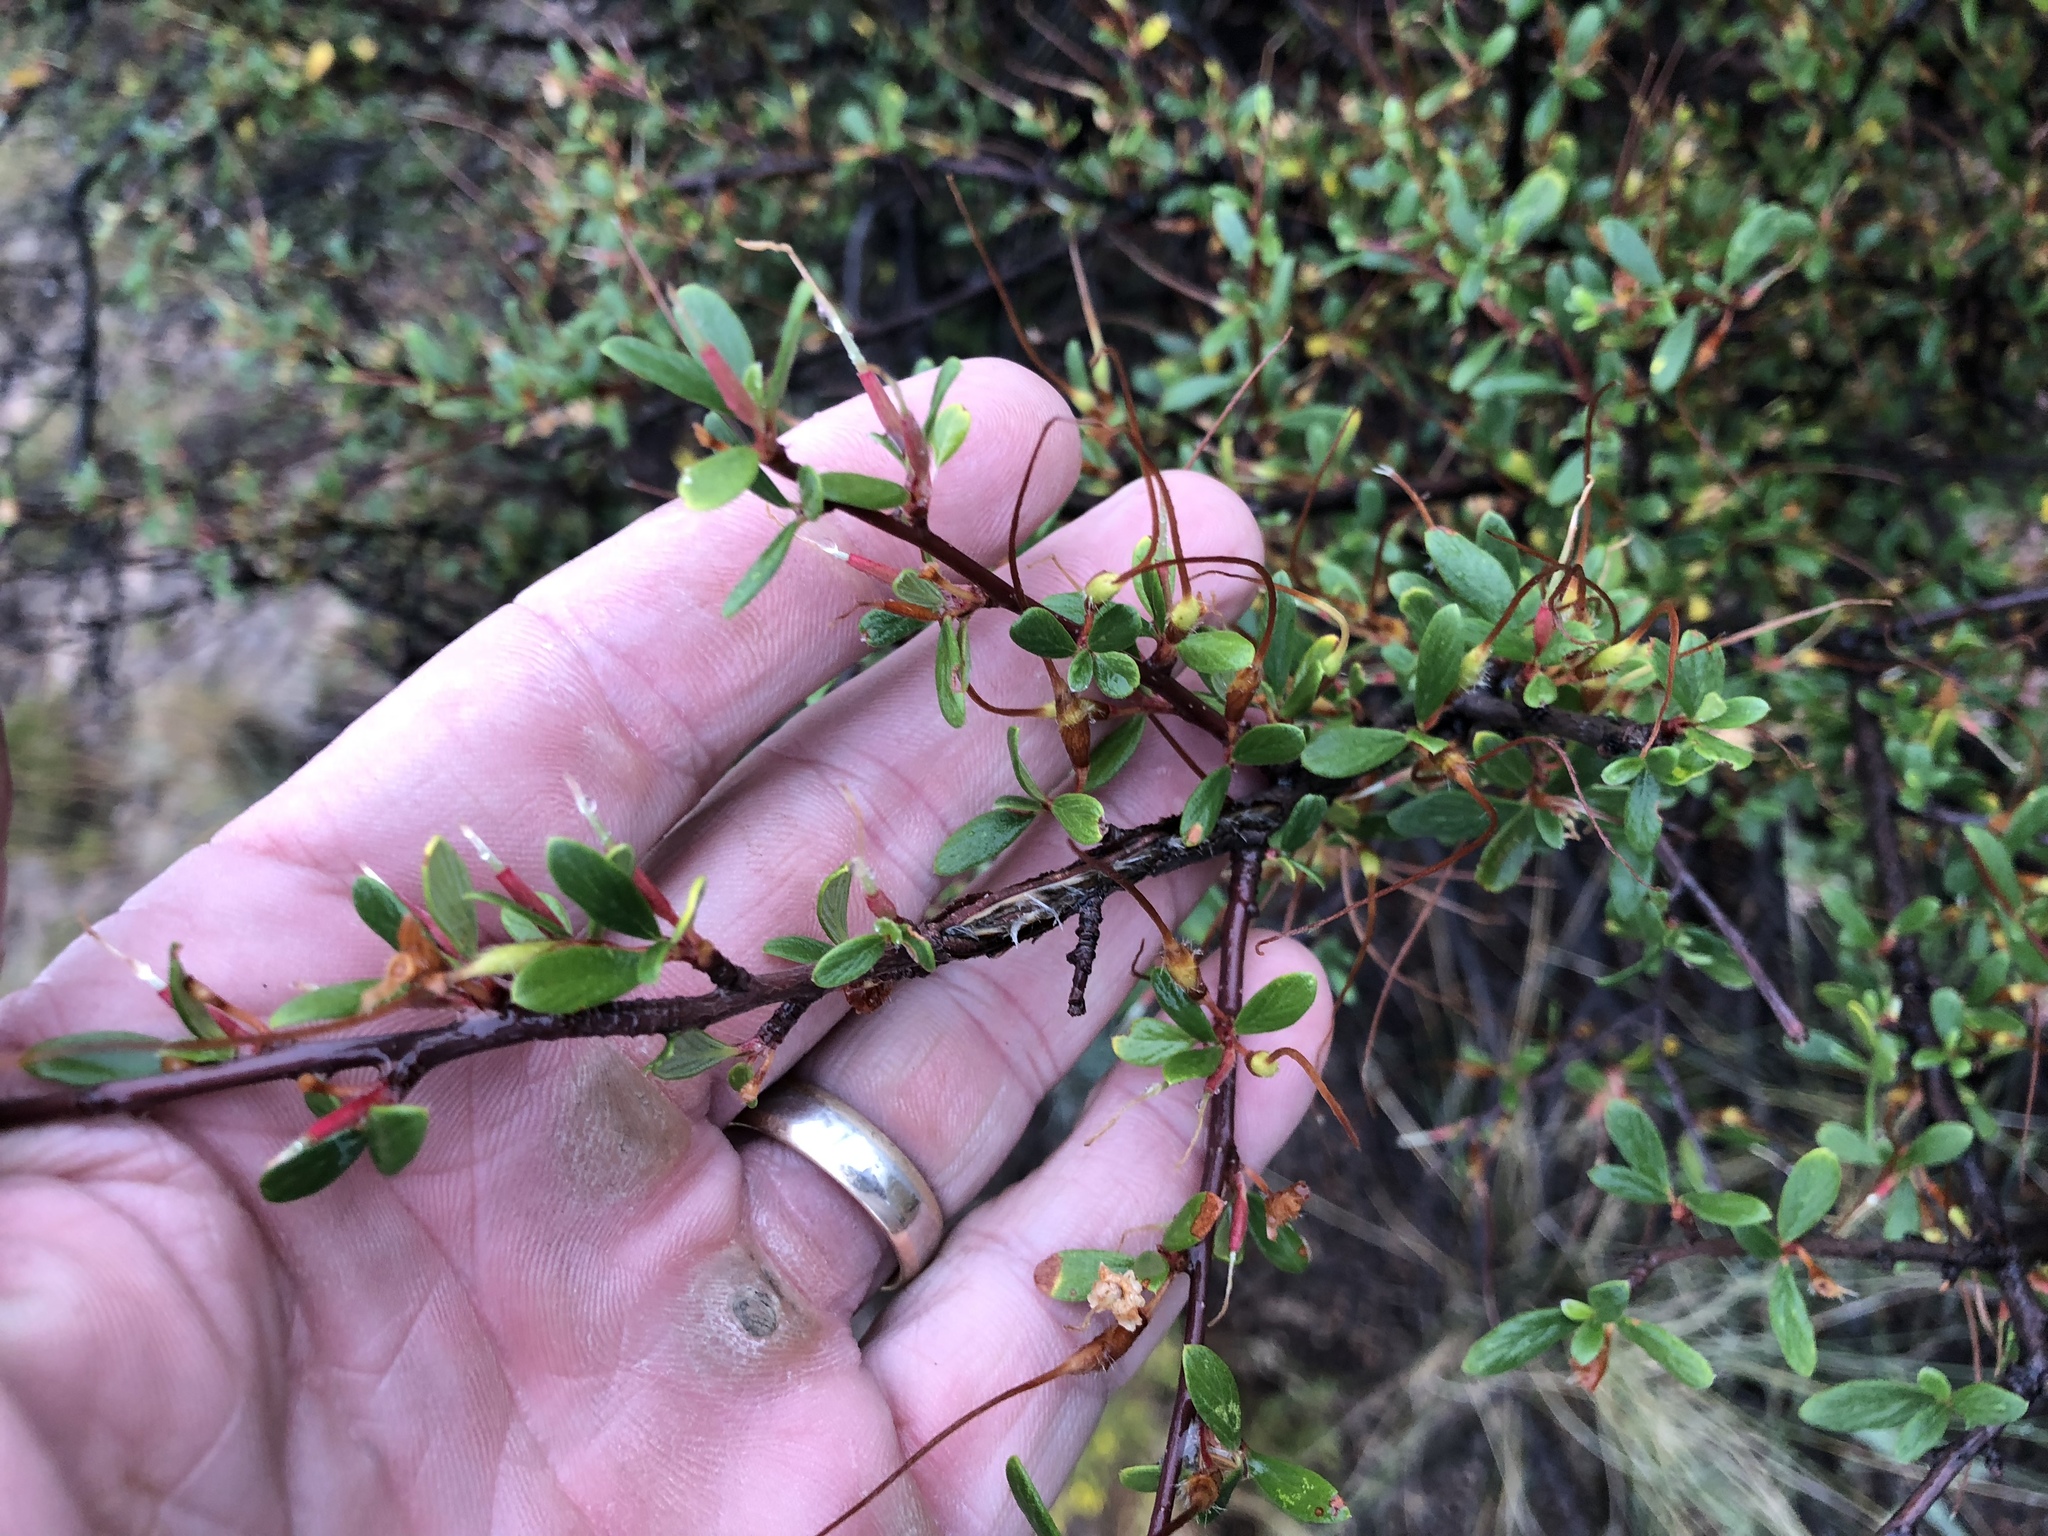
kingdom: Plantae
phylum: Tracheophyta
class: Magnoliopsida
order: Rosales
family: Rosaceae
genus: Cercocarpus
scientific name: Cercocarpus breviflorus
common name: Wright's mountain-mahogany
